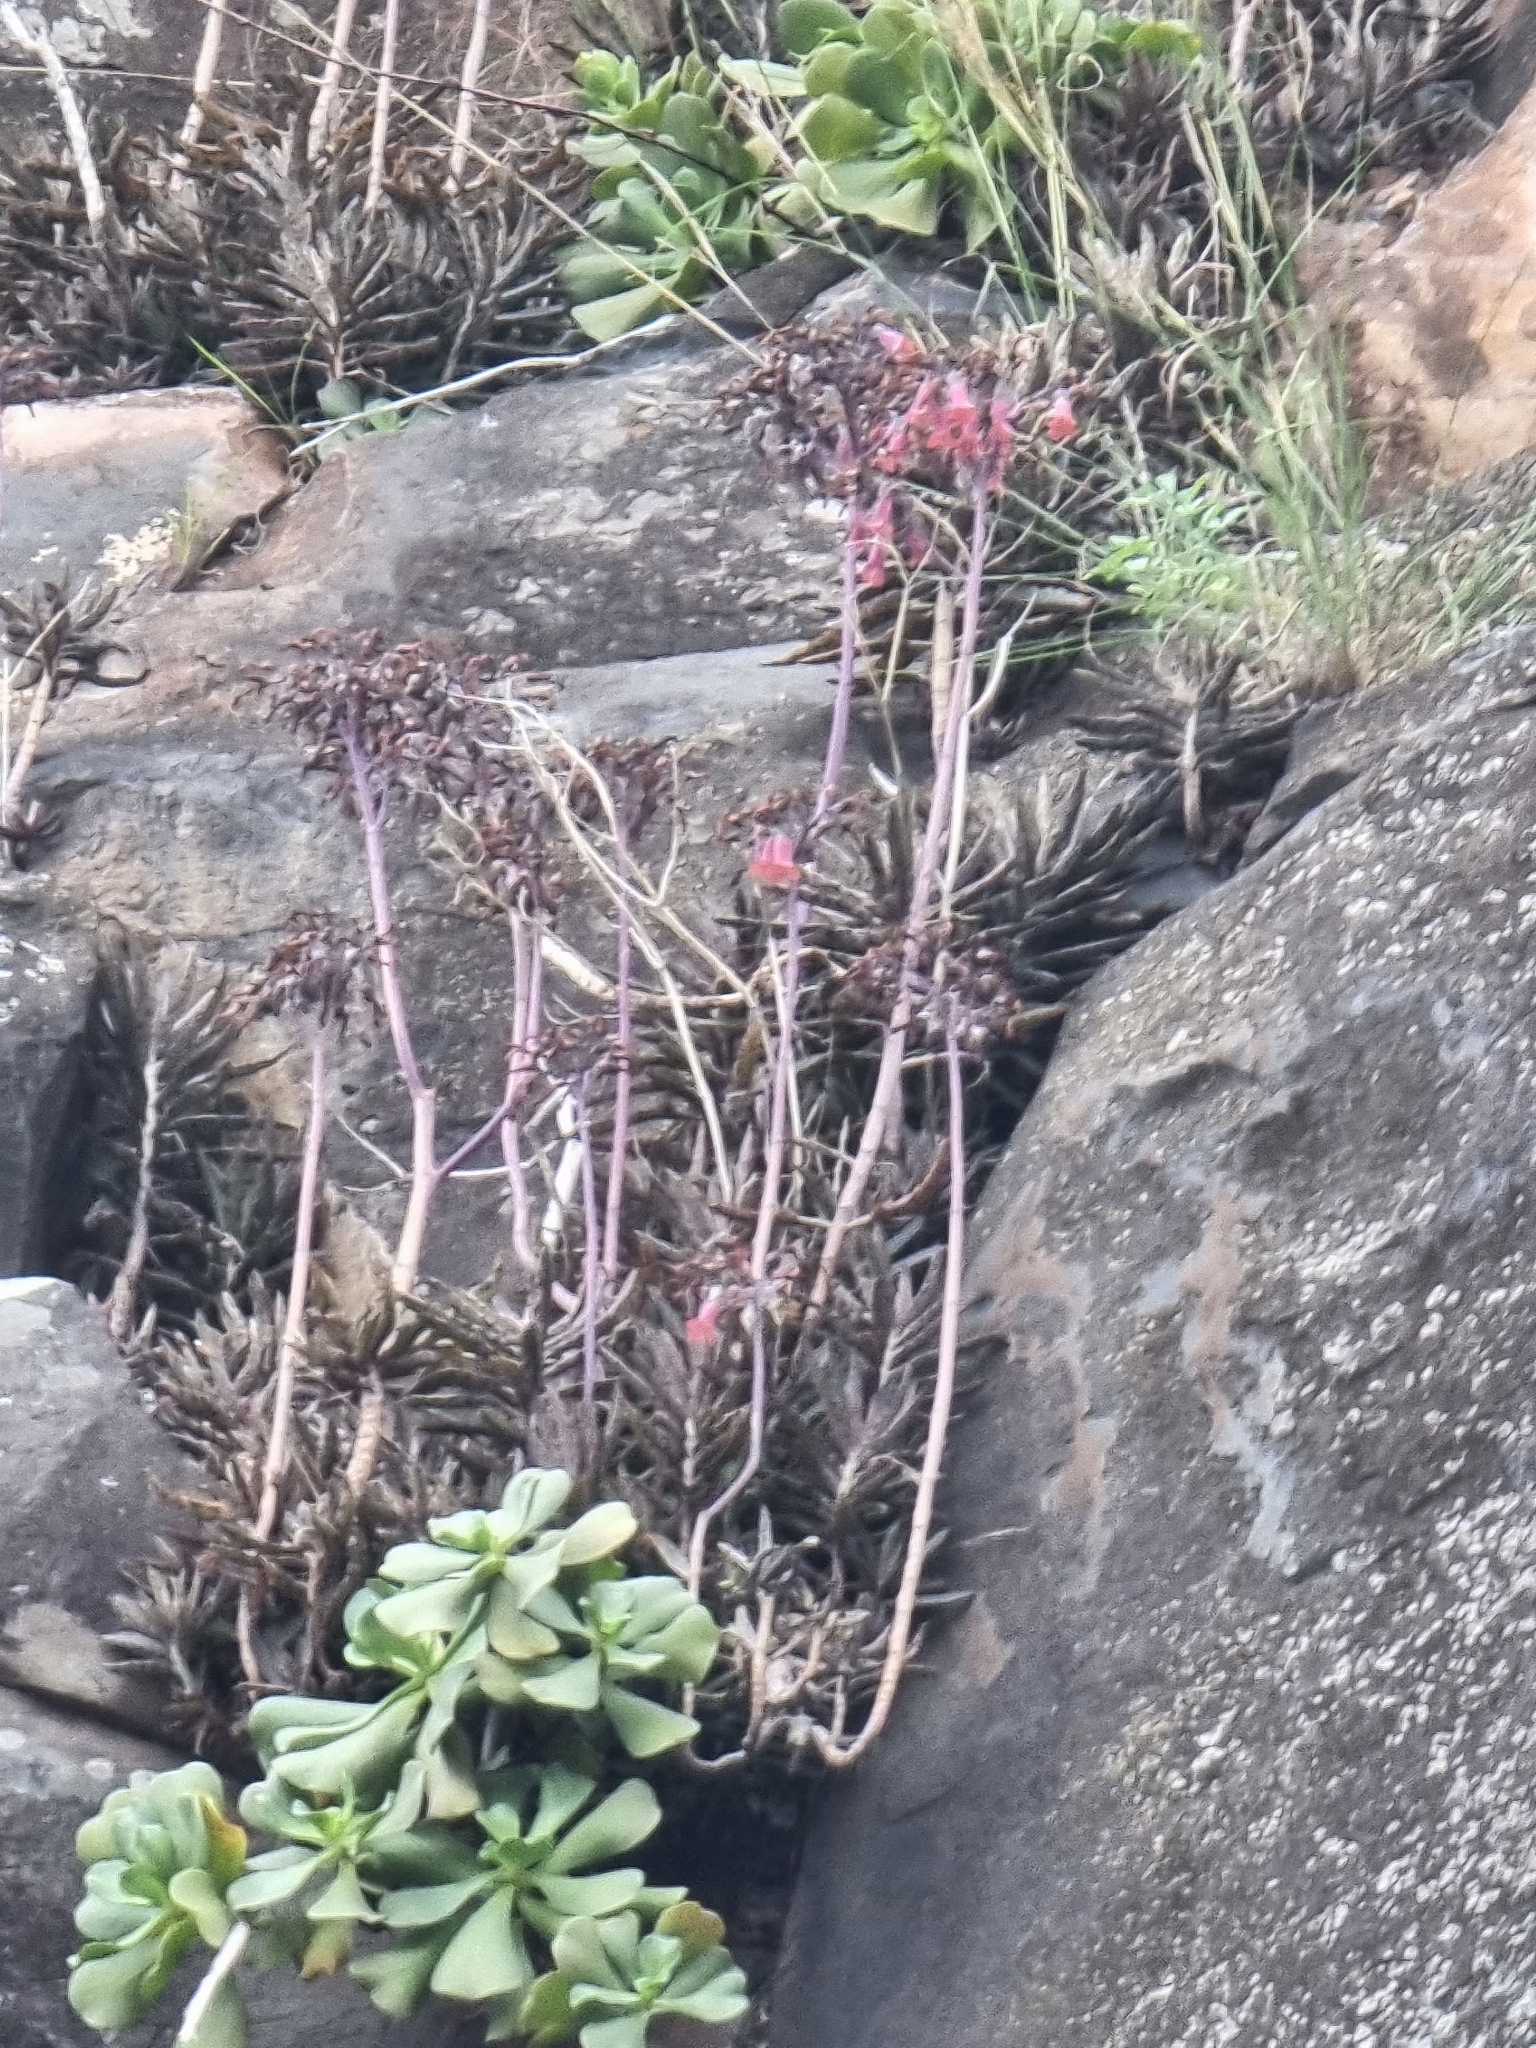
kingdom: Plantae
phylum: Tracheophyta
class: Magnoliopsida
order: Saxifragales
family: Crassulaceae
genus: Kalanchoe
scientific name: Kalanchoe houghtonii
